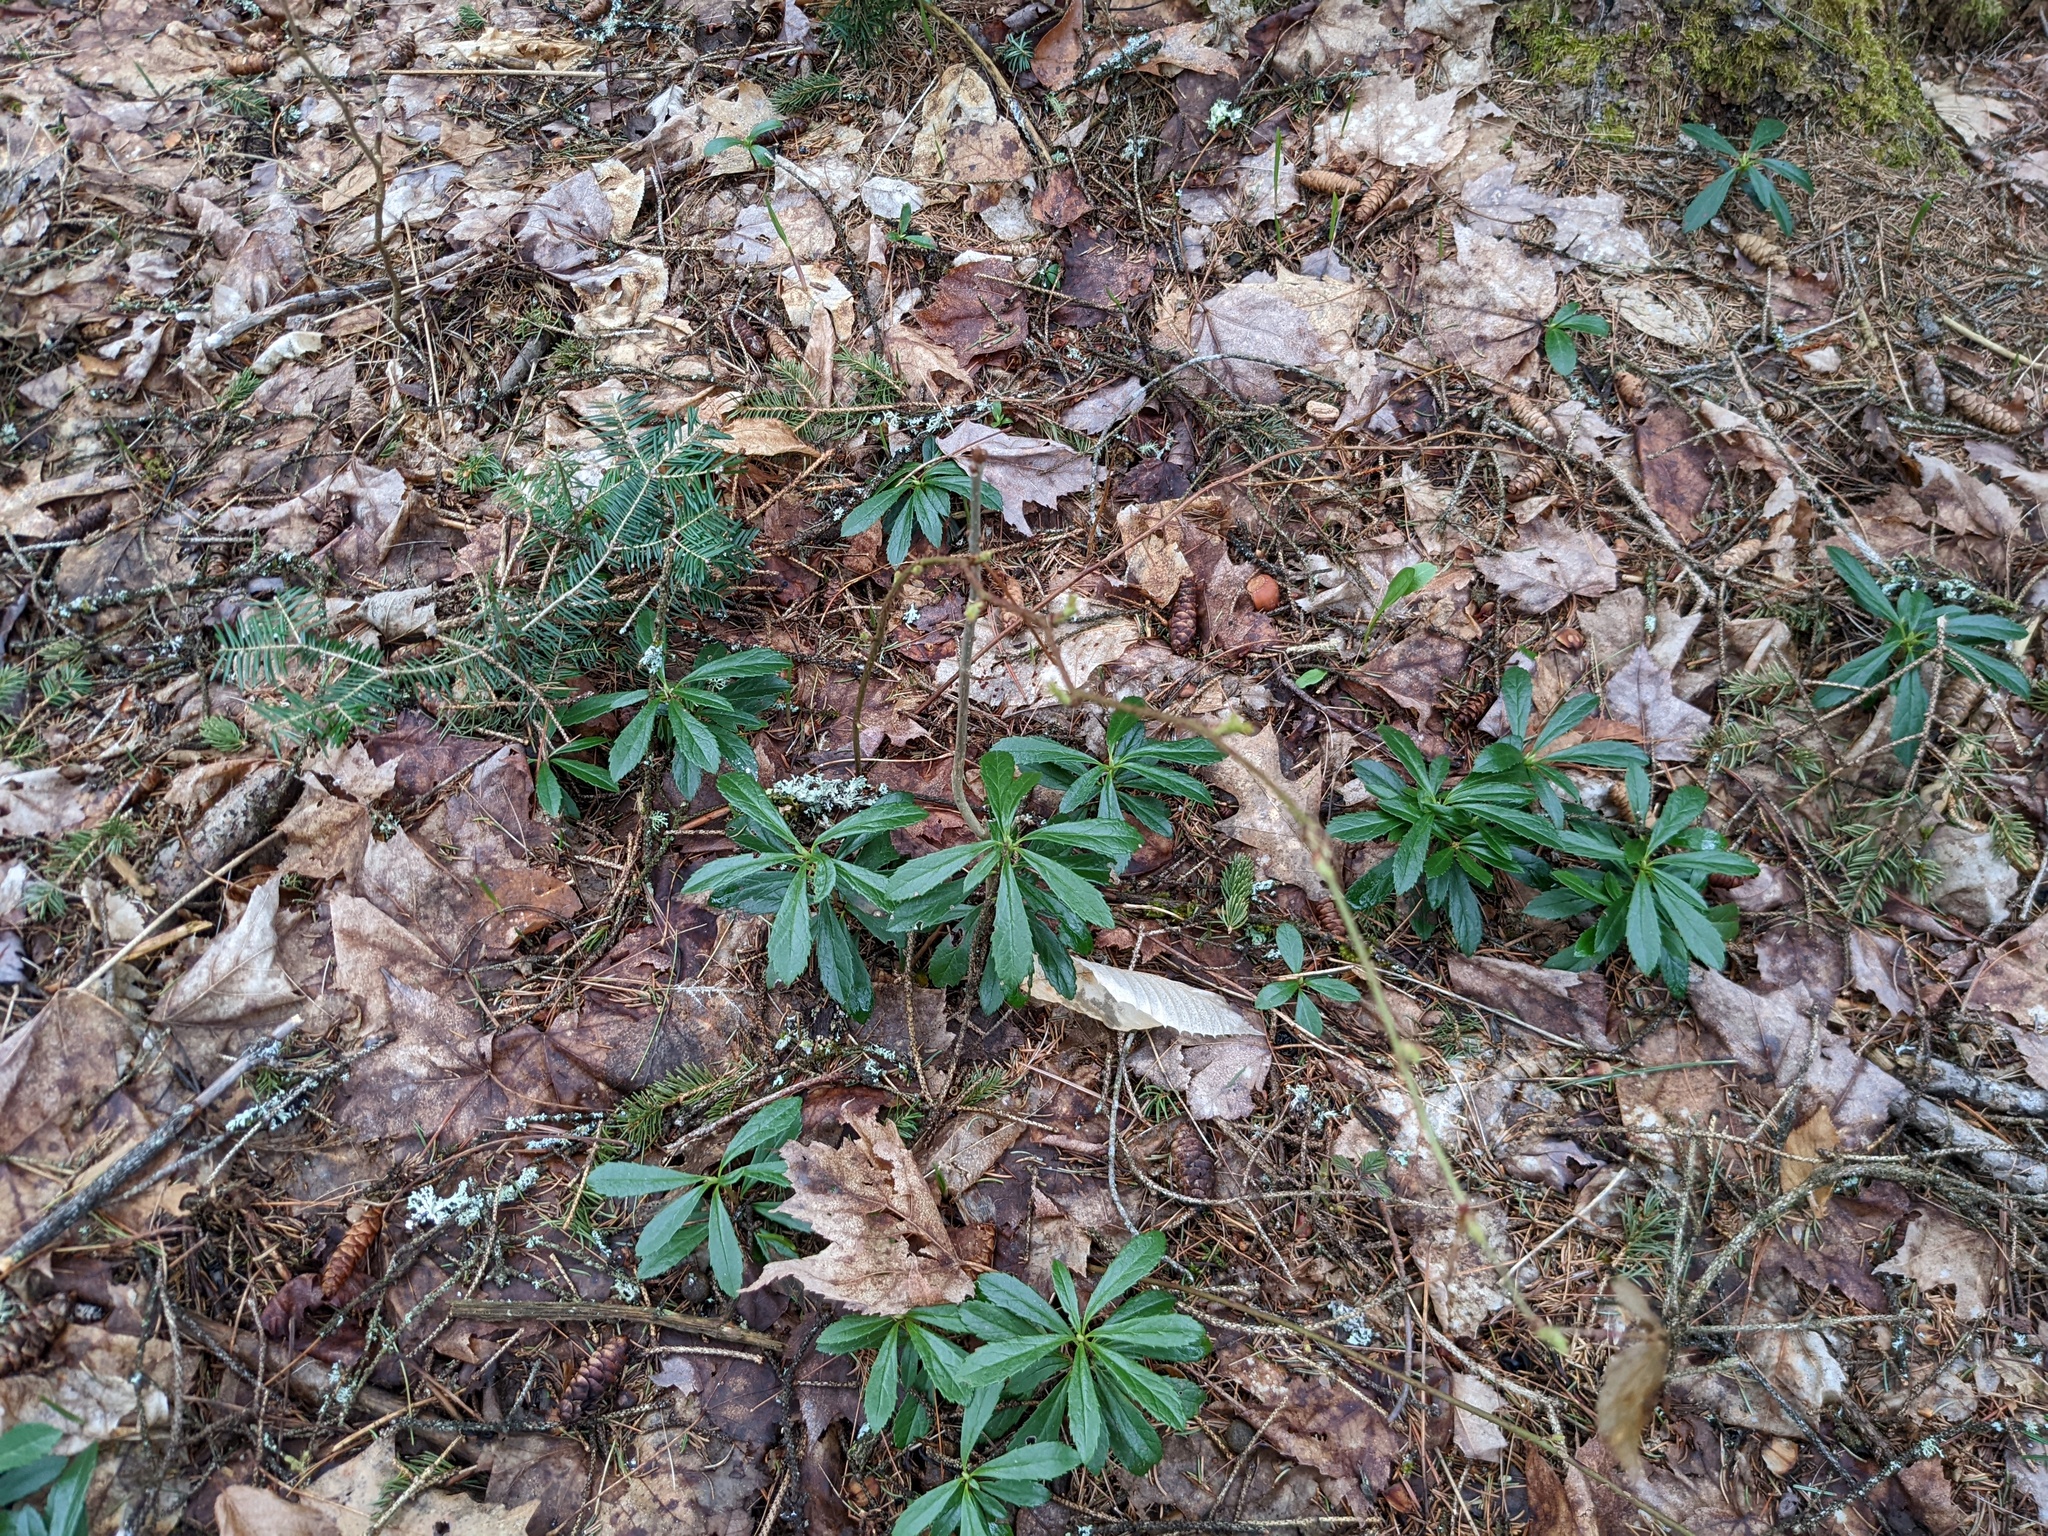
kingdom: Plantae
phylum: Tracheophyta
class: Magnoliopsida
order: Ericales
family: Ericaceae
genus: Chimaphila
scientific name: Chimaphila umbellata
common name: Pipsissewa
